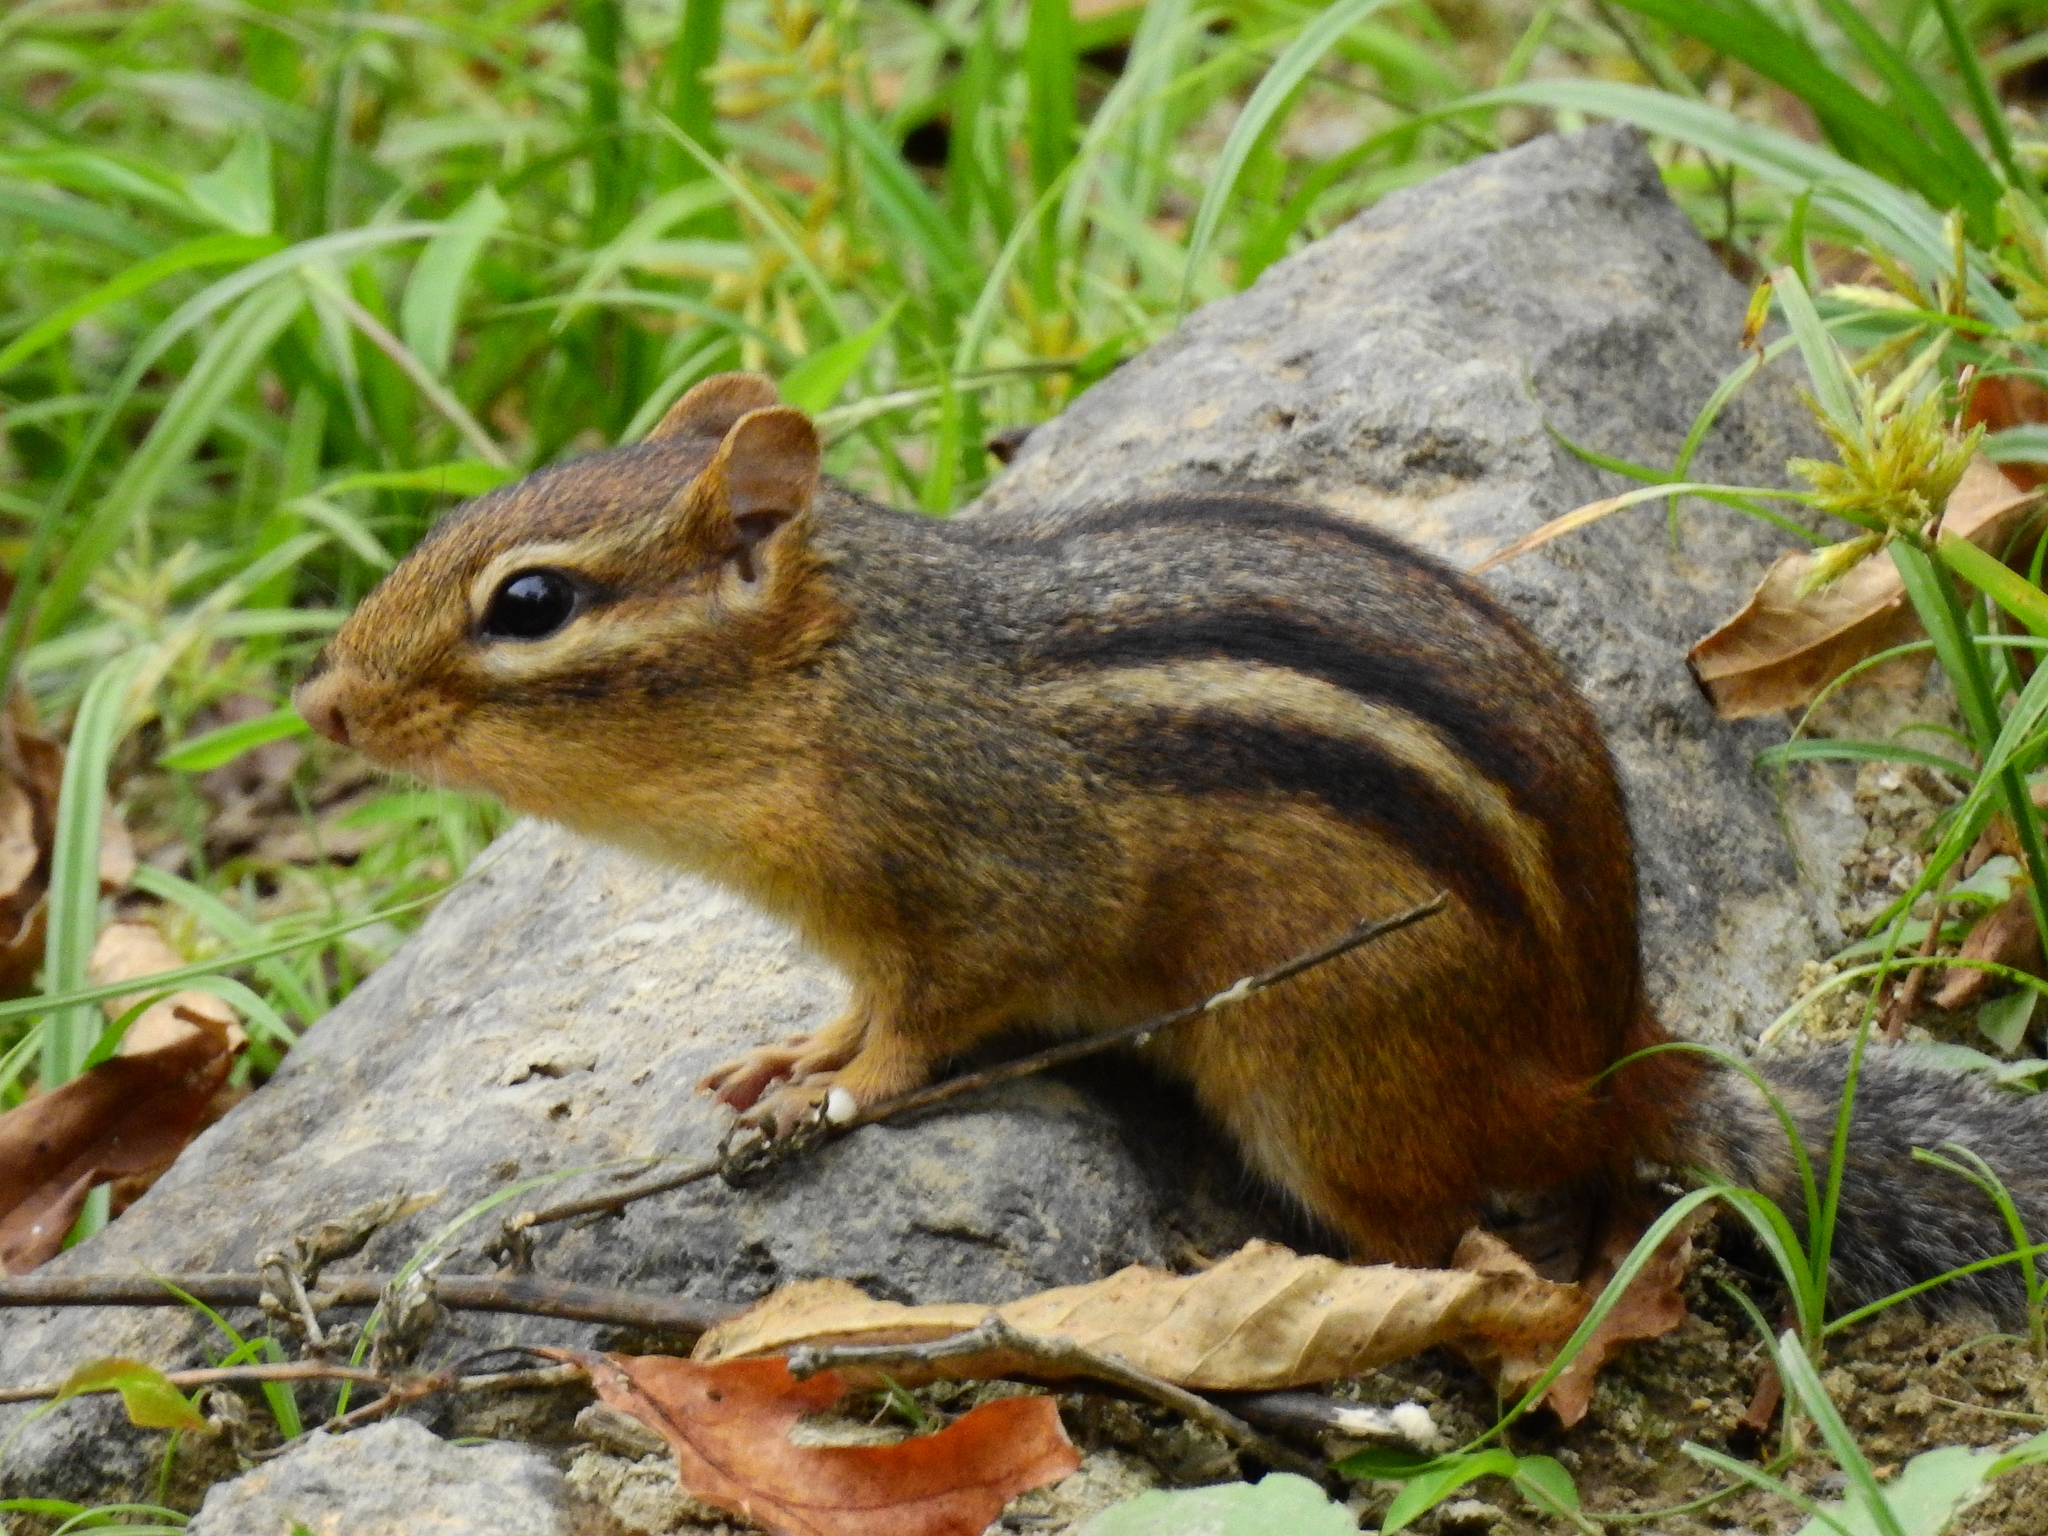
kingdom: Animalia
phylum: Chordata
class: Mammalia
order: Rodentia
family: Sciuridae
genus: Tamias
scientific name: Tamias striatus
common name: Eastern chipmunk
